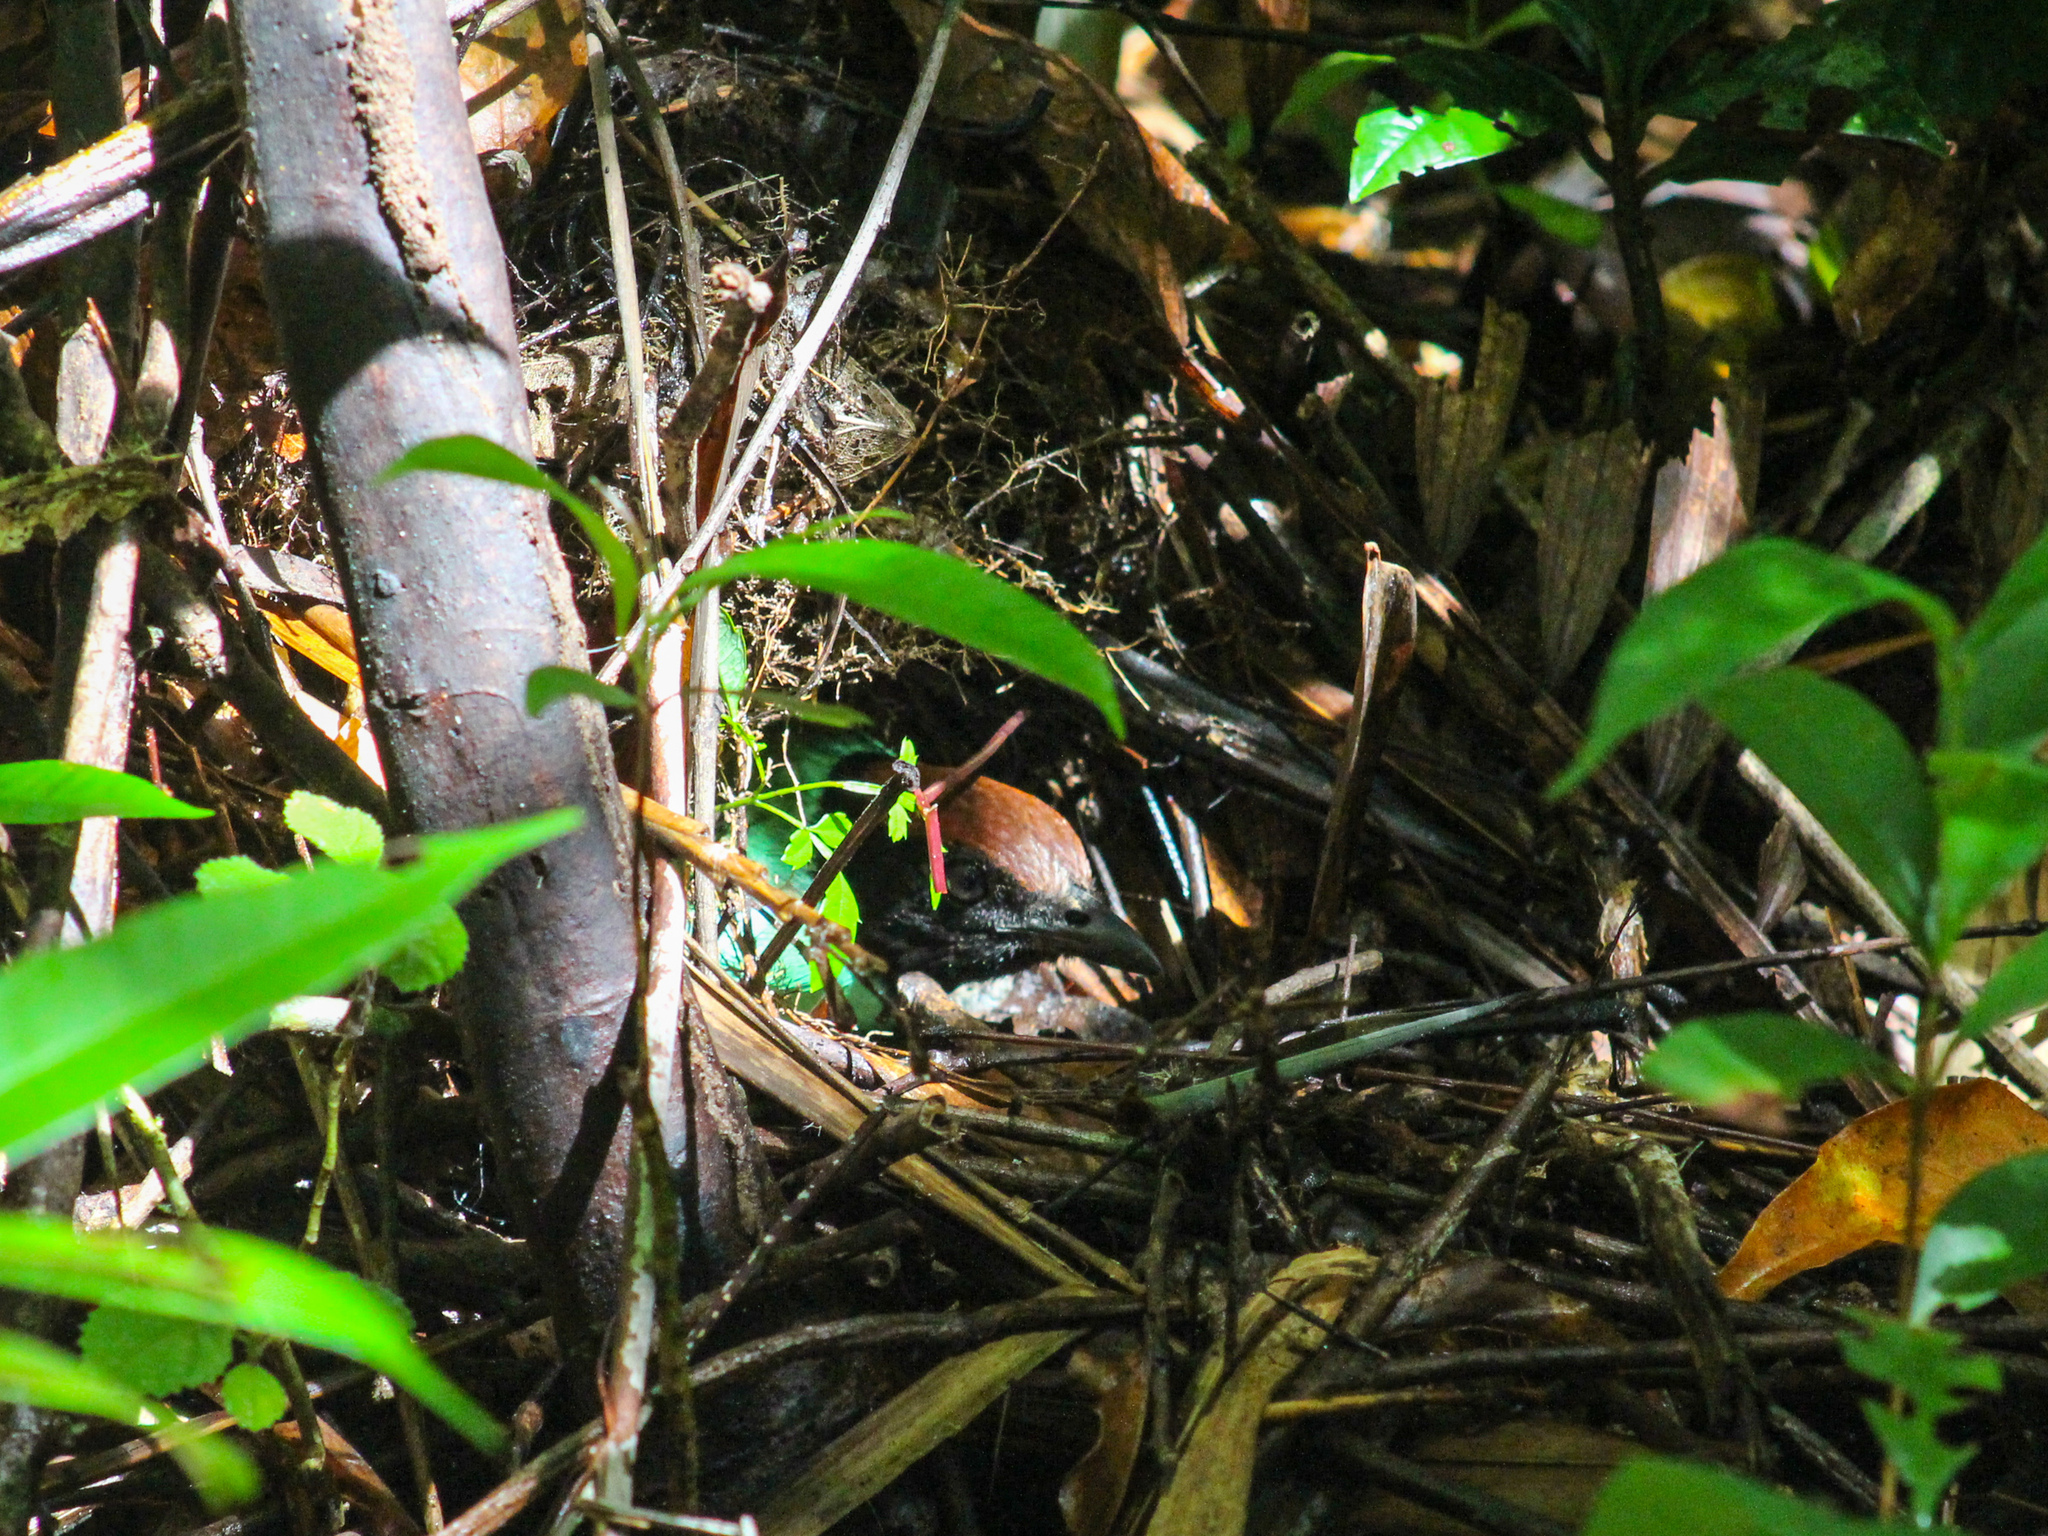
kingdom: Animalia
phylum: Chordata
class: Aves
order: Passeriformes
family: Pittidae
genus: Pitta
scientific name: Pitta sordida
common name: Hooded pitta
